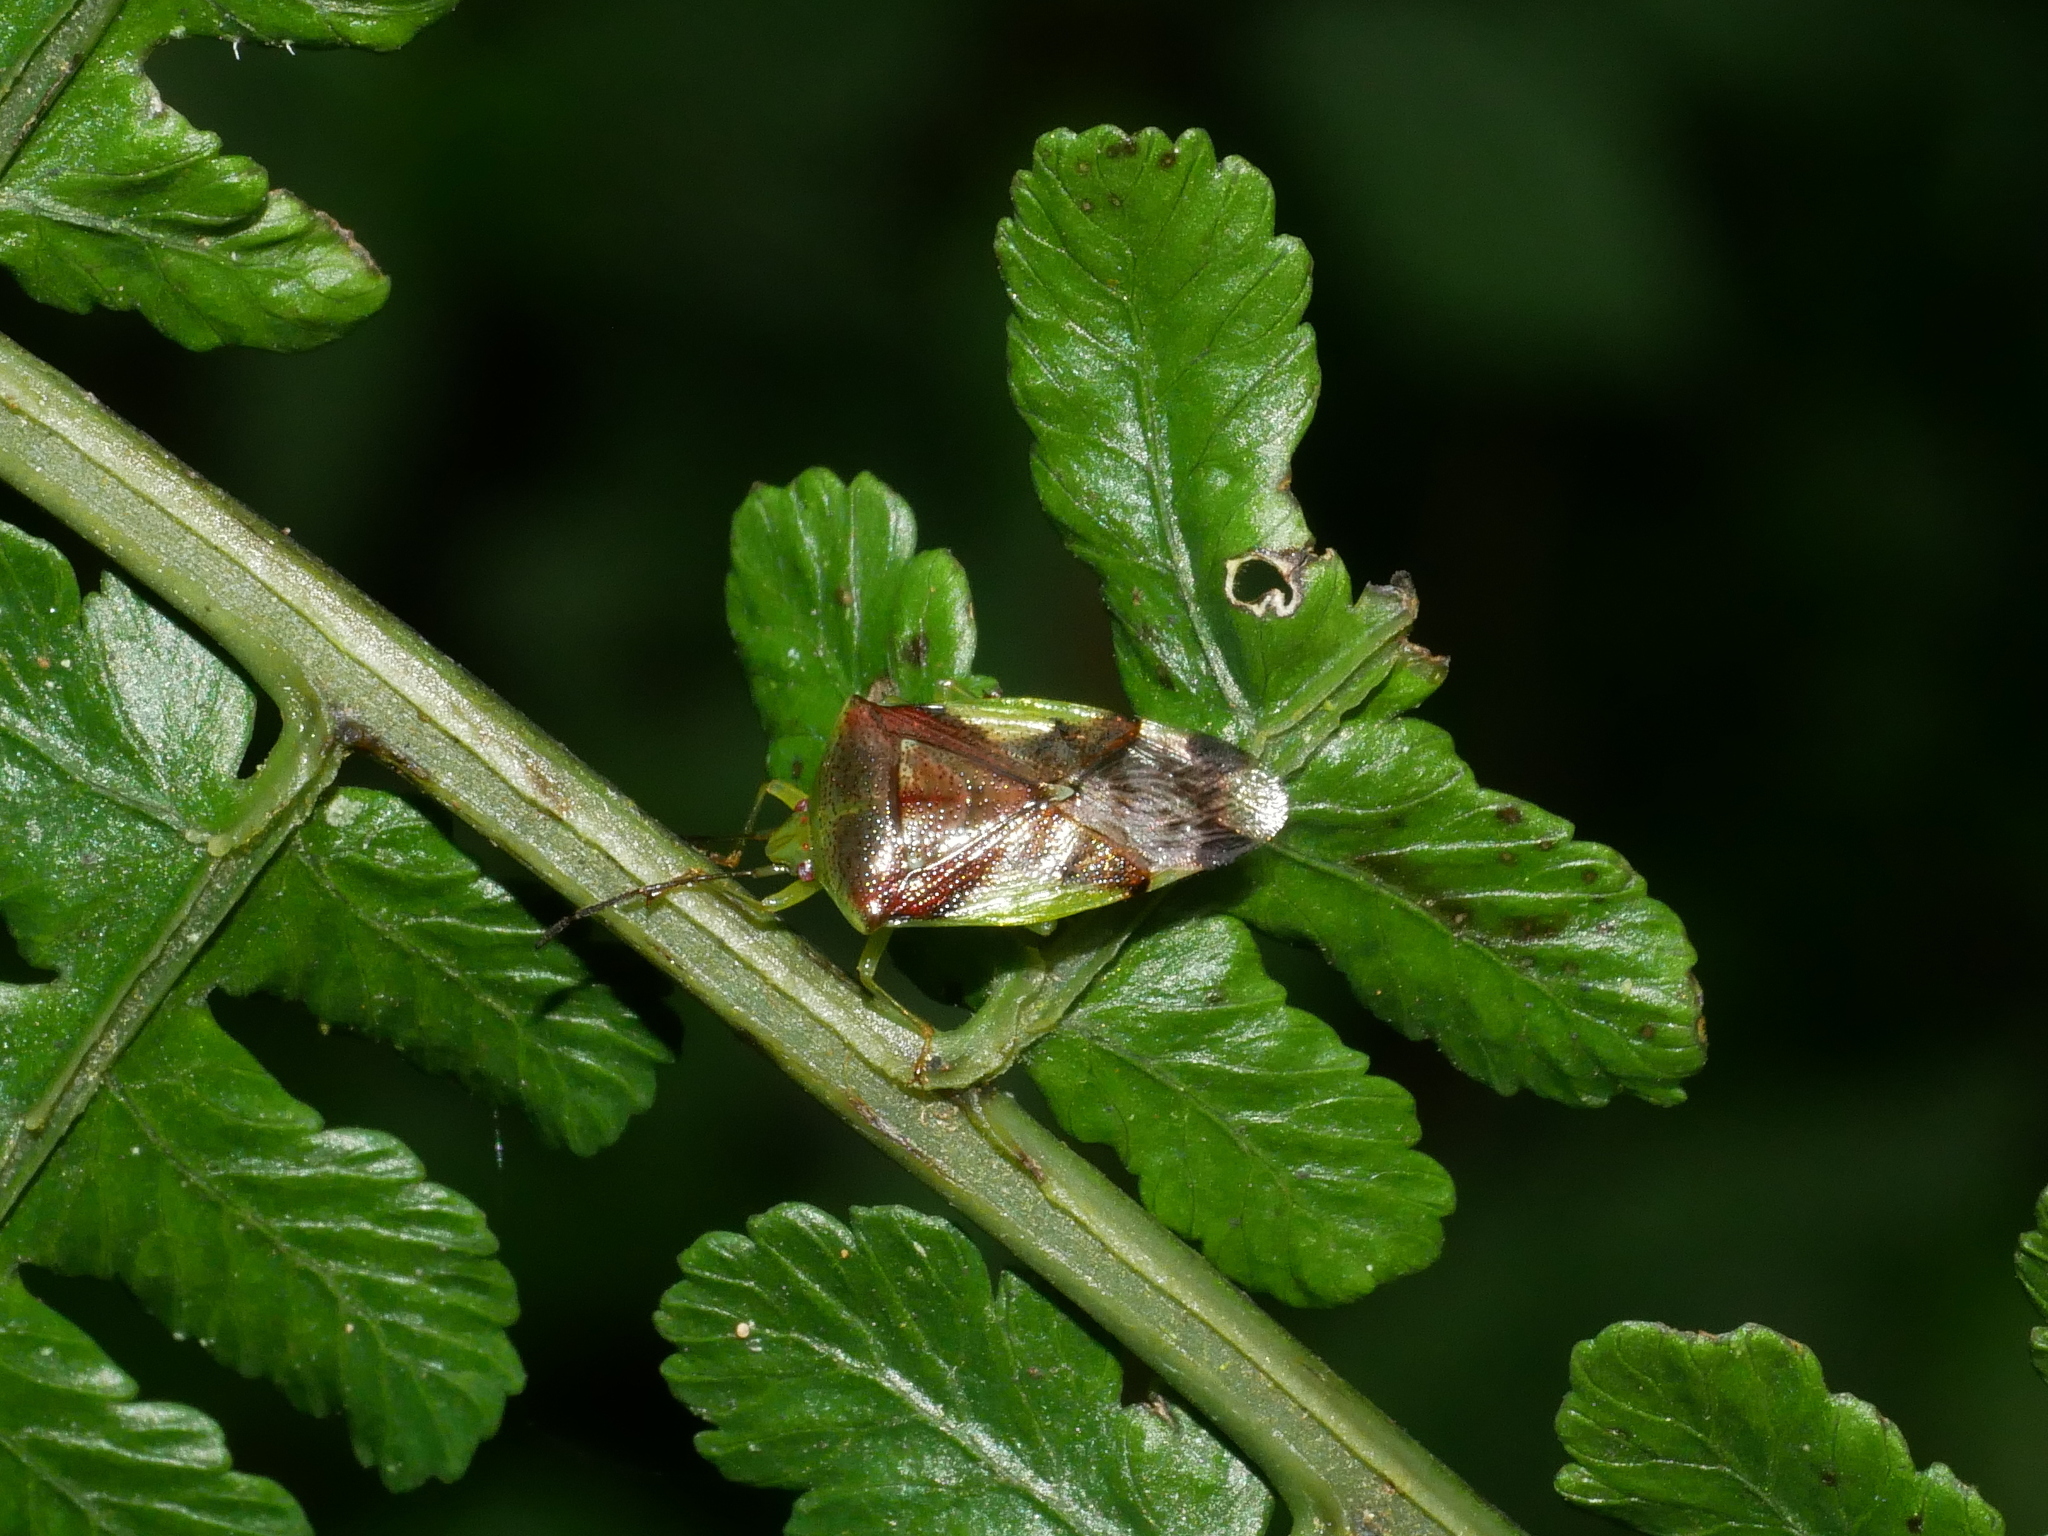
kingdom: Animalia
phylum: Arthropoda
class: Insecta
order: Hemiptera
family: Acanthosomatidae
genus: Elasmostethus
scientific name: Elasmostethus nubilus
